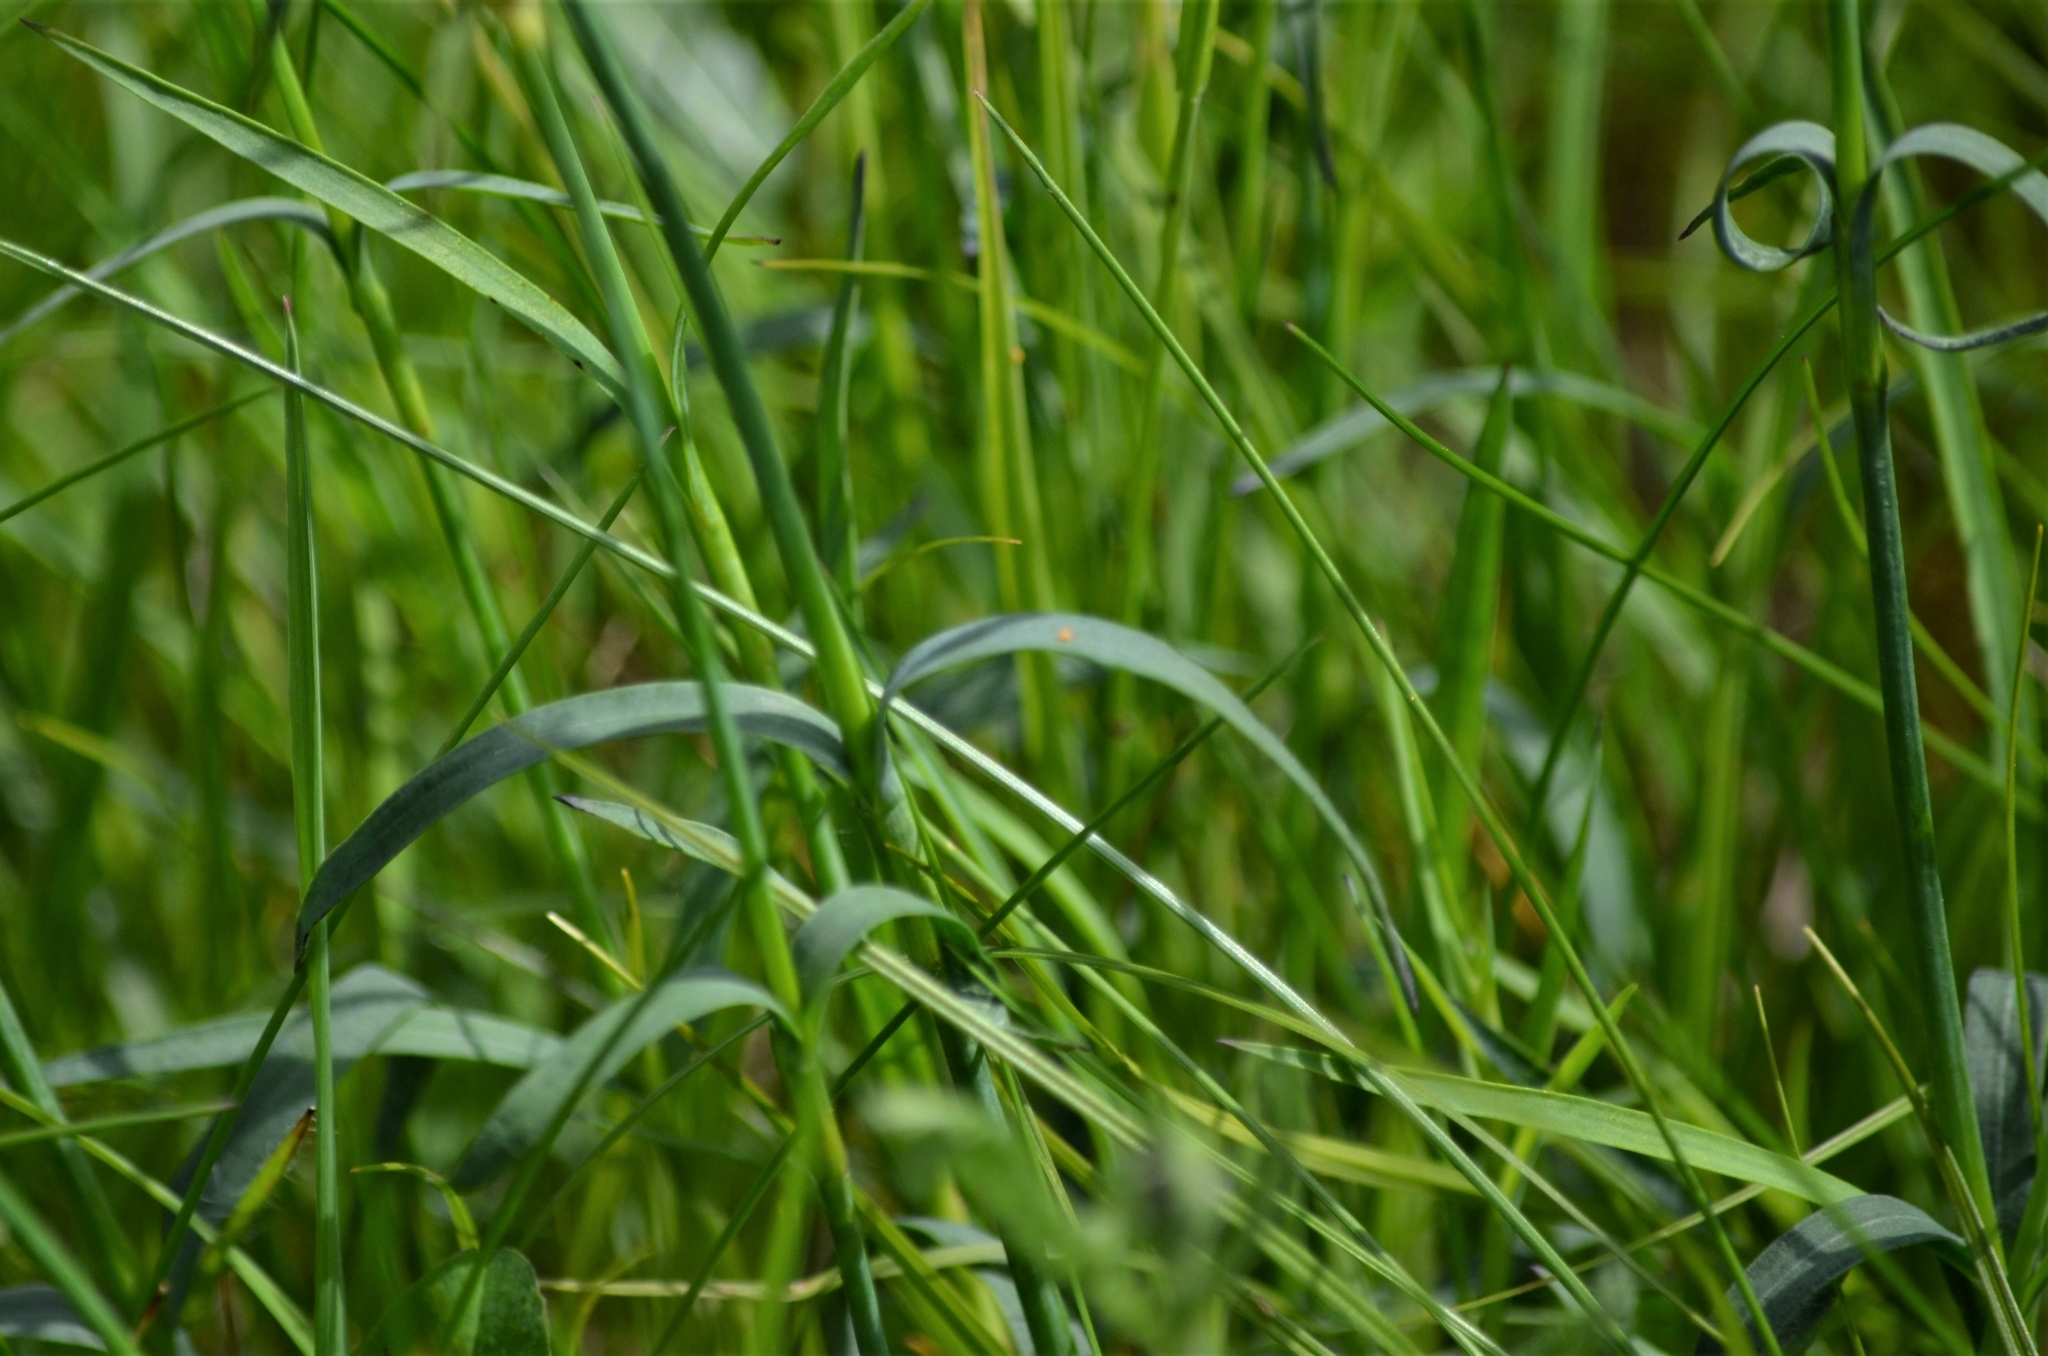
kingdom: Plantae
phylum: Tracheophyta
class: Magnoliopsida
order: Caryophyllales
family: Caryophyllaceae
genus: Dianthus
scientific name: Dianthus carthusianorum
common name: Carthusian pink
